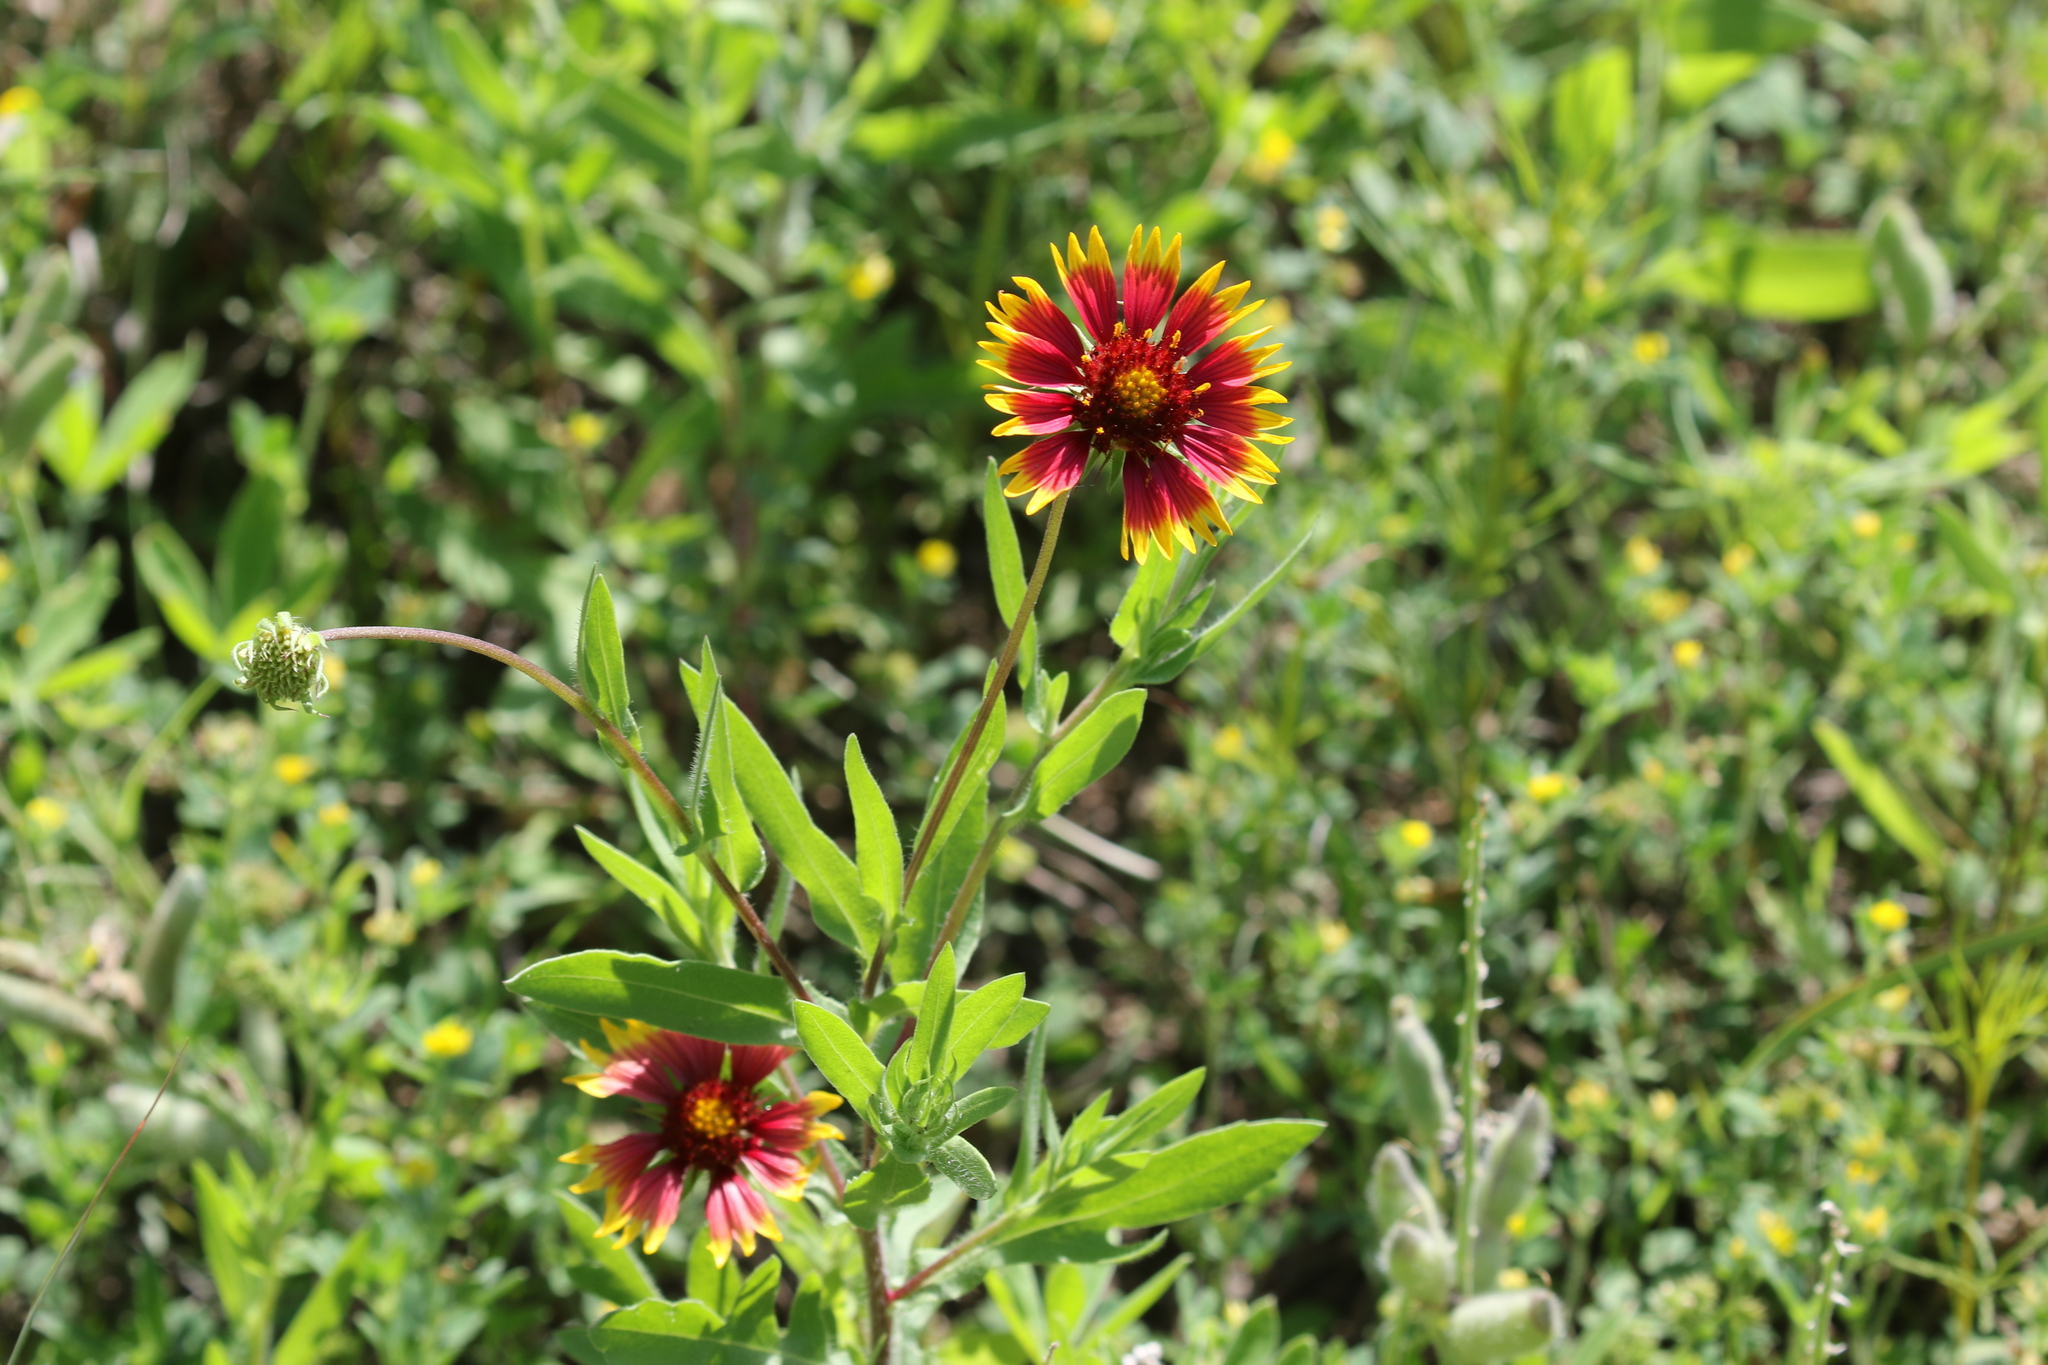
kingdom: Plantae
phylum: Tracheophyta
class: Magnoliopsida
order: Asterales
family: Asteraceae
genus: Gaillardia
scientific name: Gaillardia pulchella
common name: Firewheel
